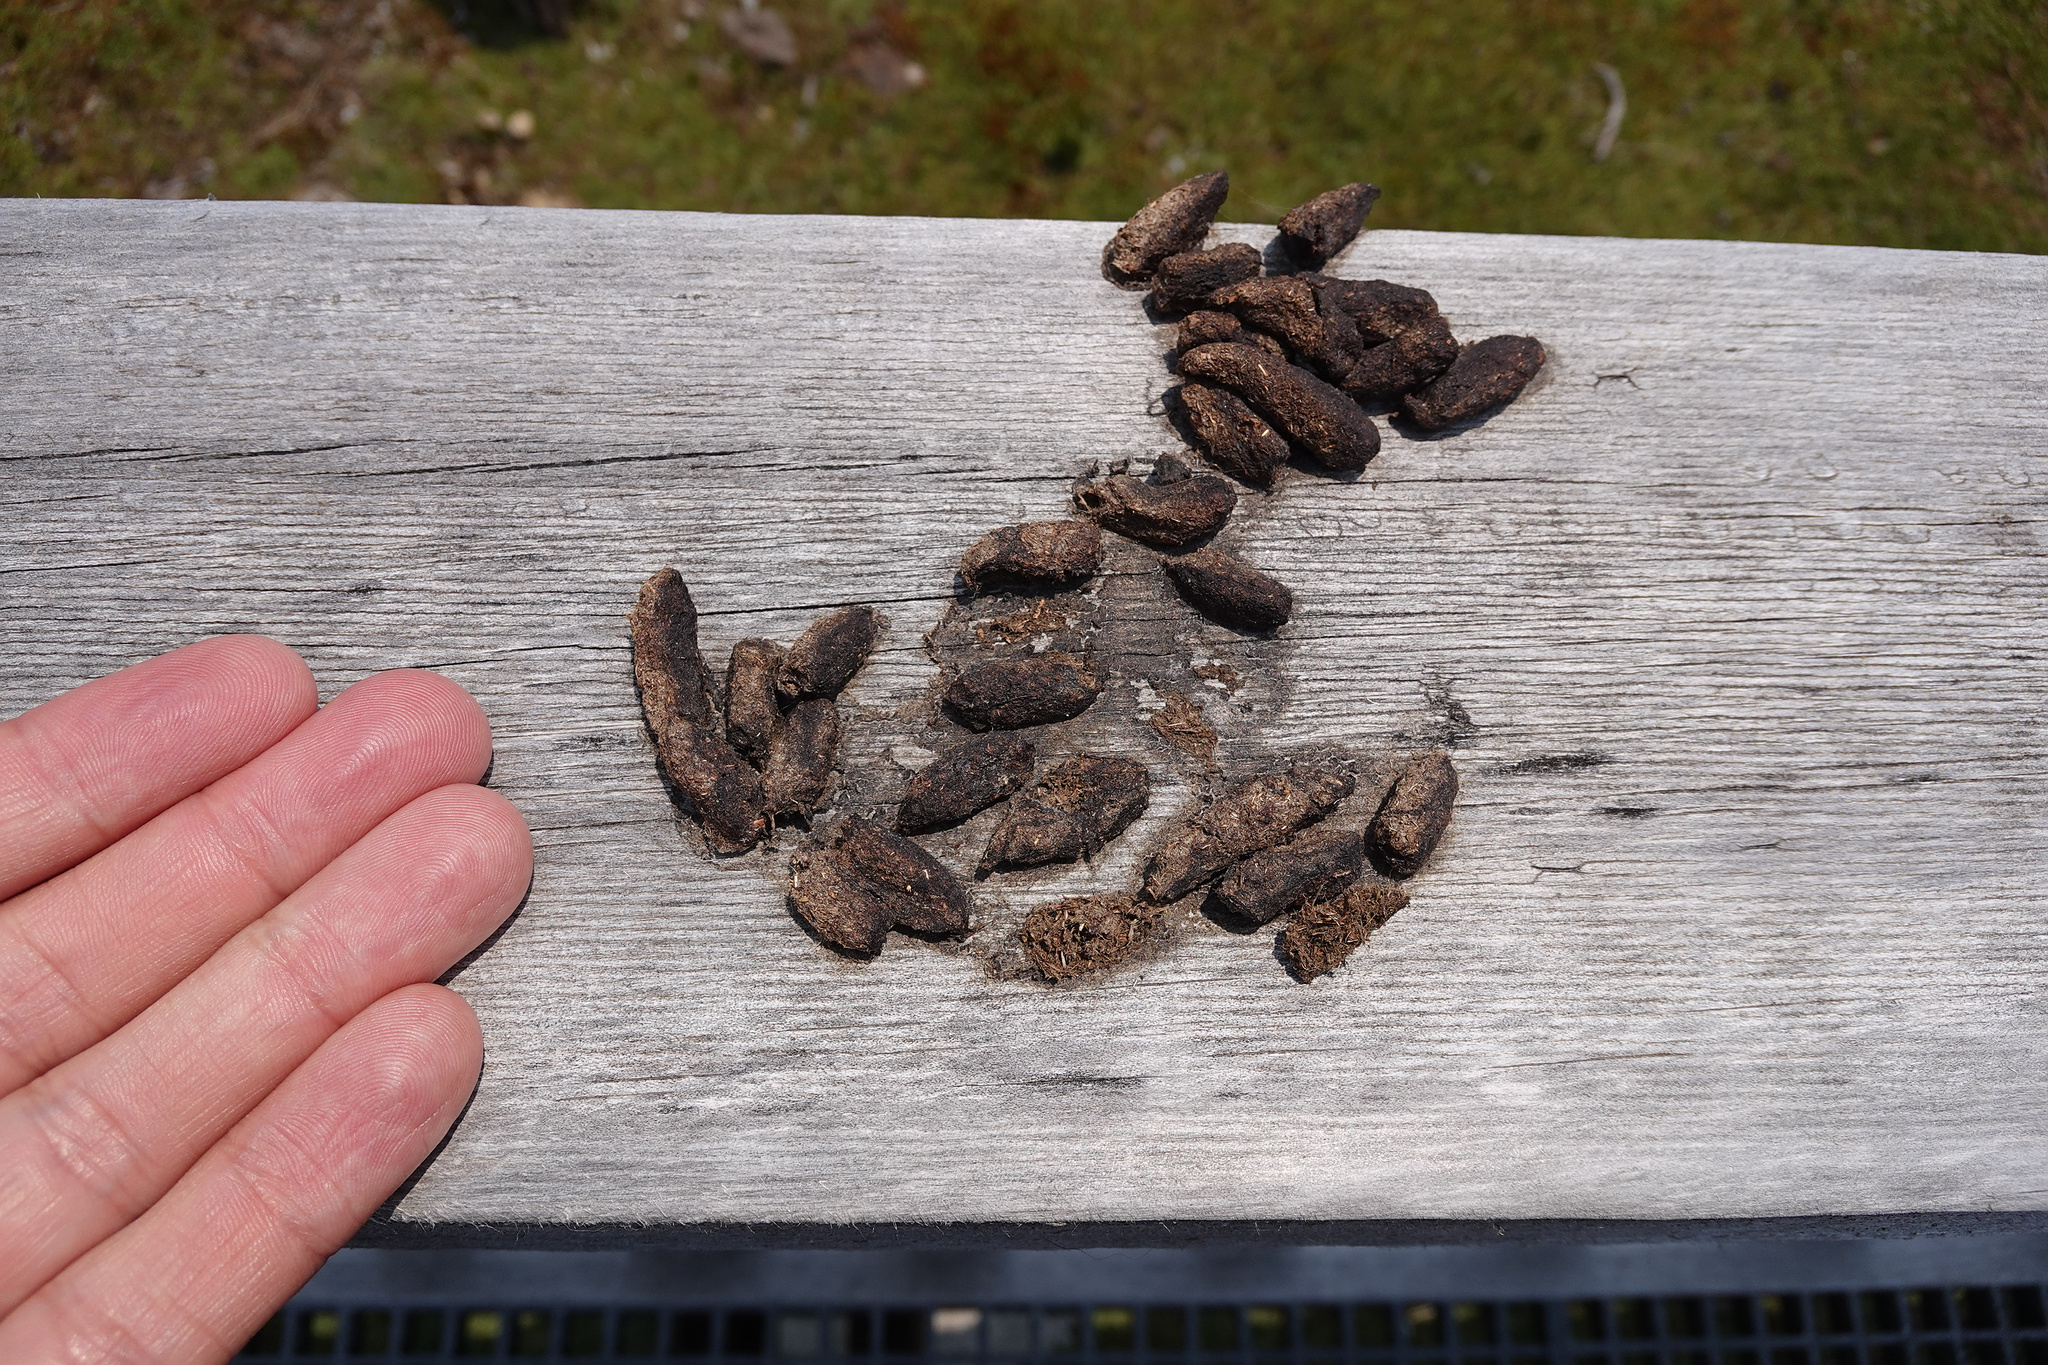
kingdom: Animalia
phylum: Chordata
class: Mammalia
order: Diprotodontia
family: Phalangeridae
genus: Trichosurus
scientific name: Trichosurus vulpecula
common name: Common brushtail
